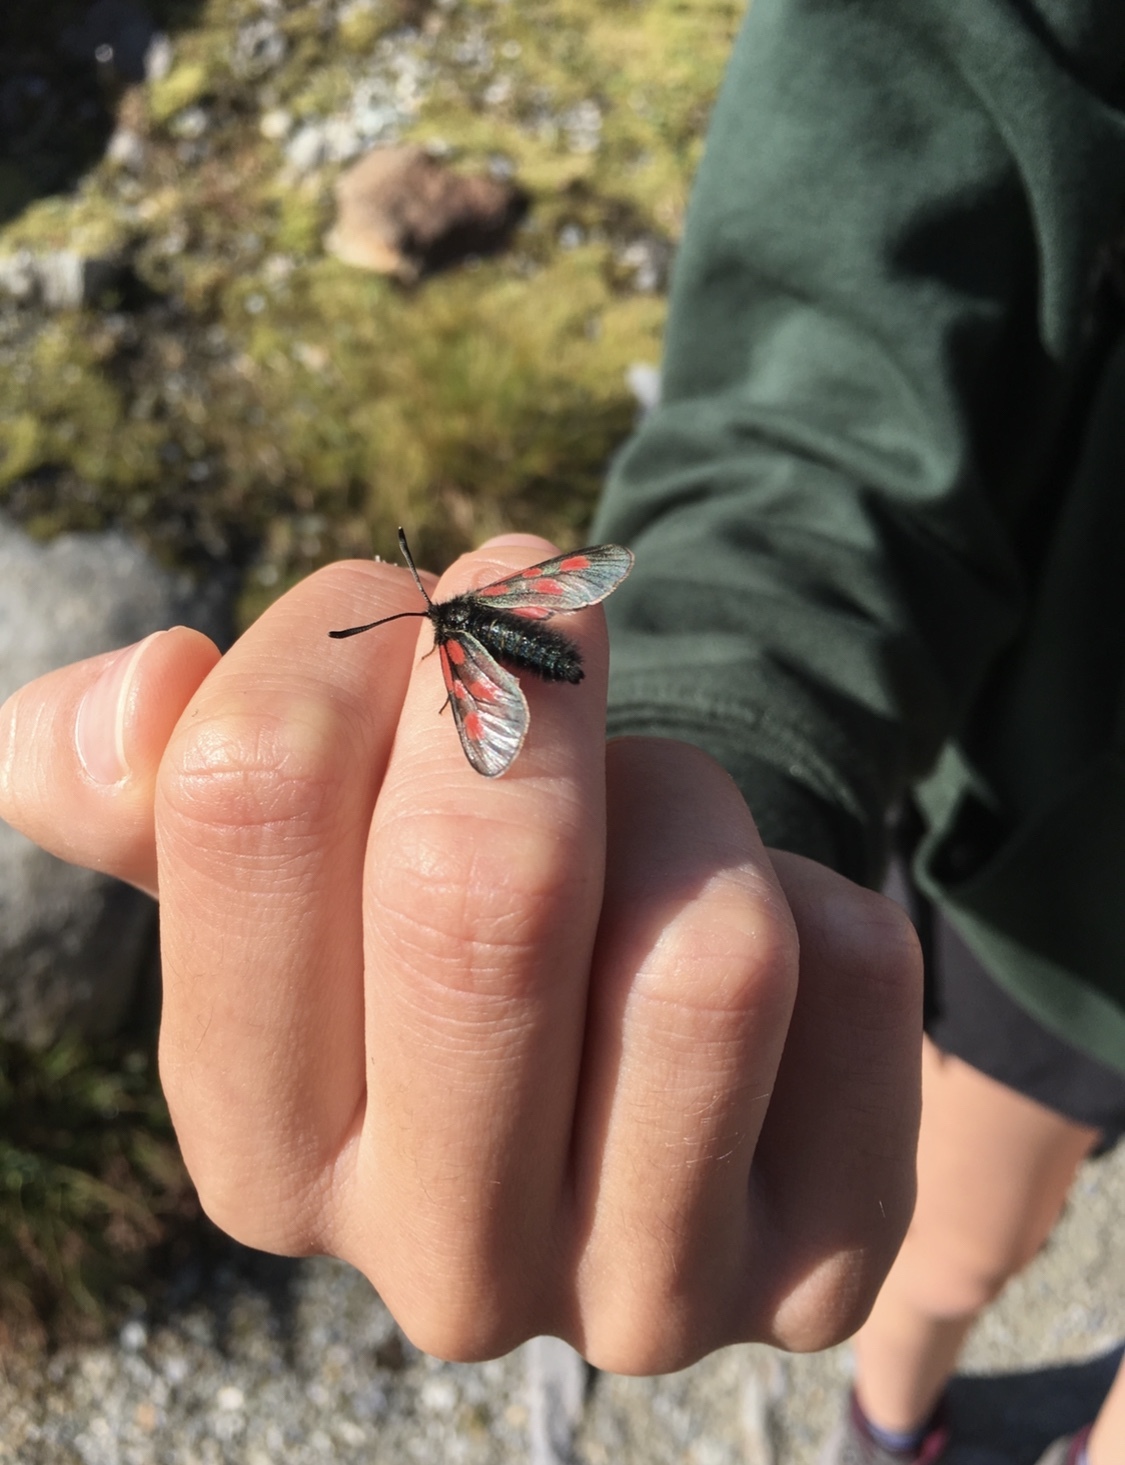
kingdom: Animalia
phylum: Arthropoda
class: Insecta
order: Lepidoptera
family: Zygaenidae
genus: Zygaena
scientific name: Zygaena exulans
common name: Scotch burnet
